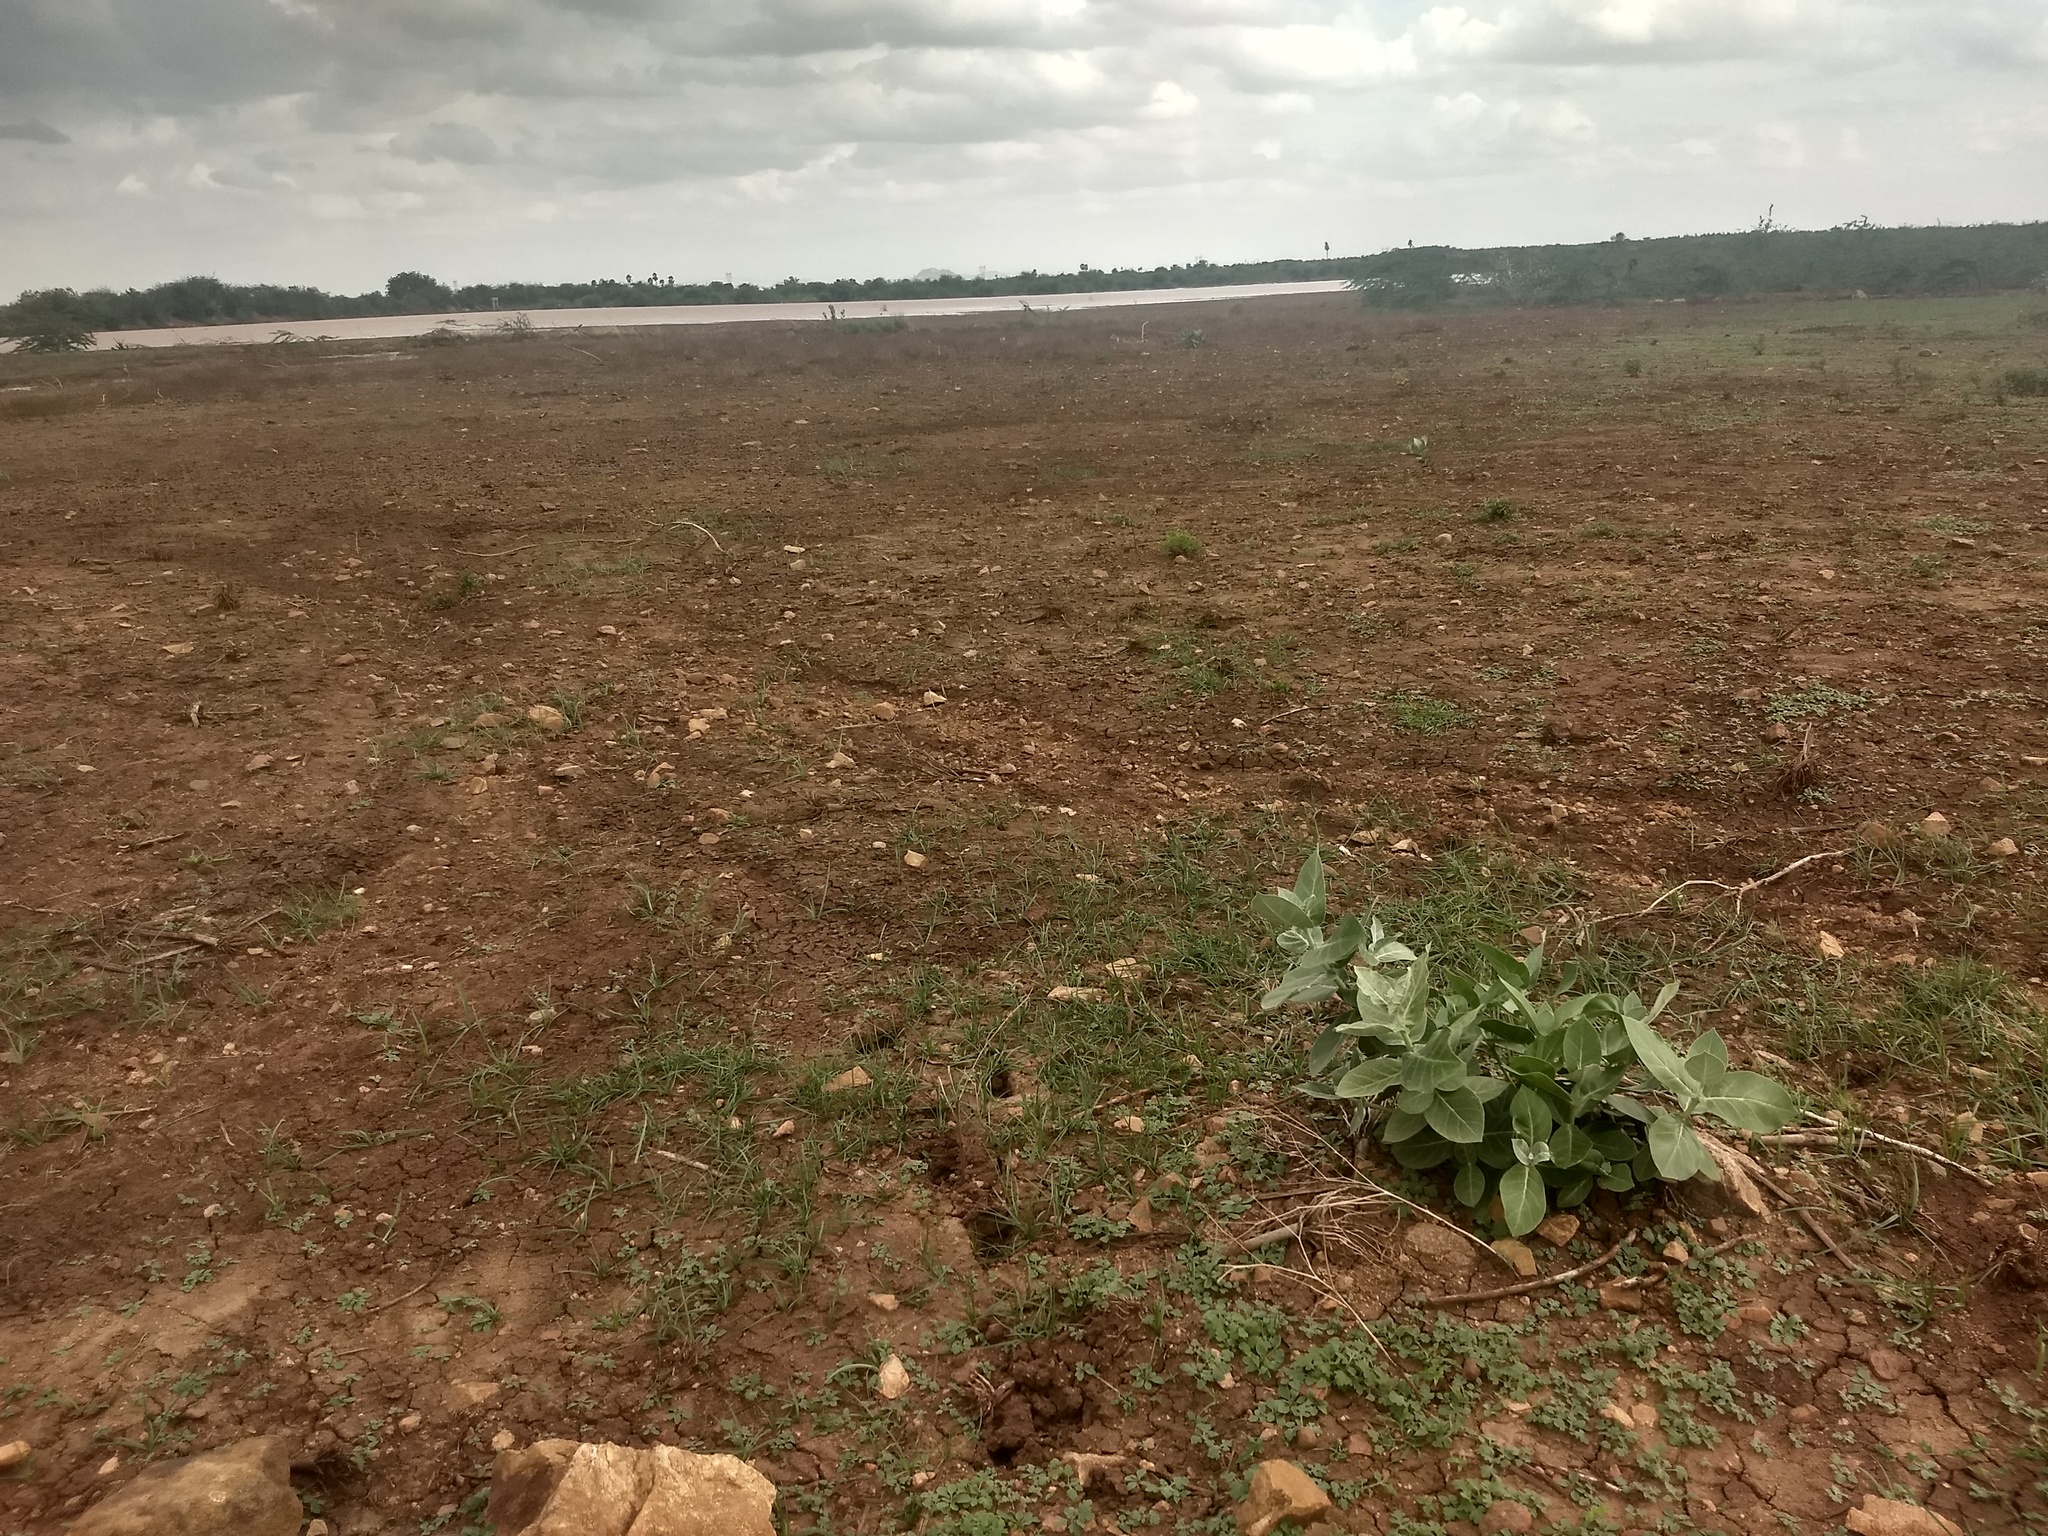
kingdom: Plantae
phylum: Tracheophyta
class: Magnoliopsida
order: Gentianales
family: Apocynaceae
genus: Calotropis
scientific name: Calotropis procera
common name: Roostertree
